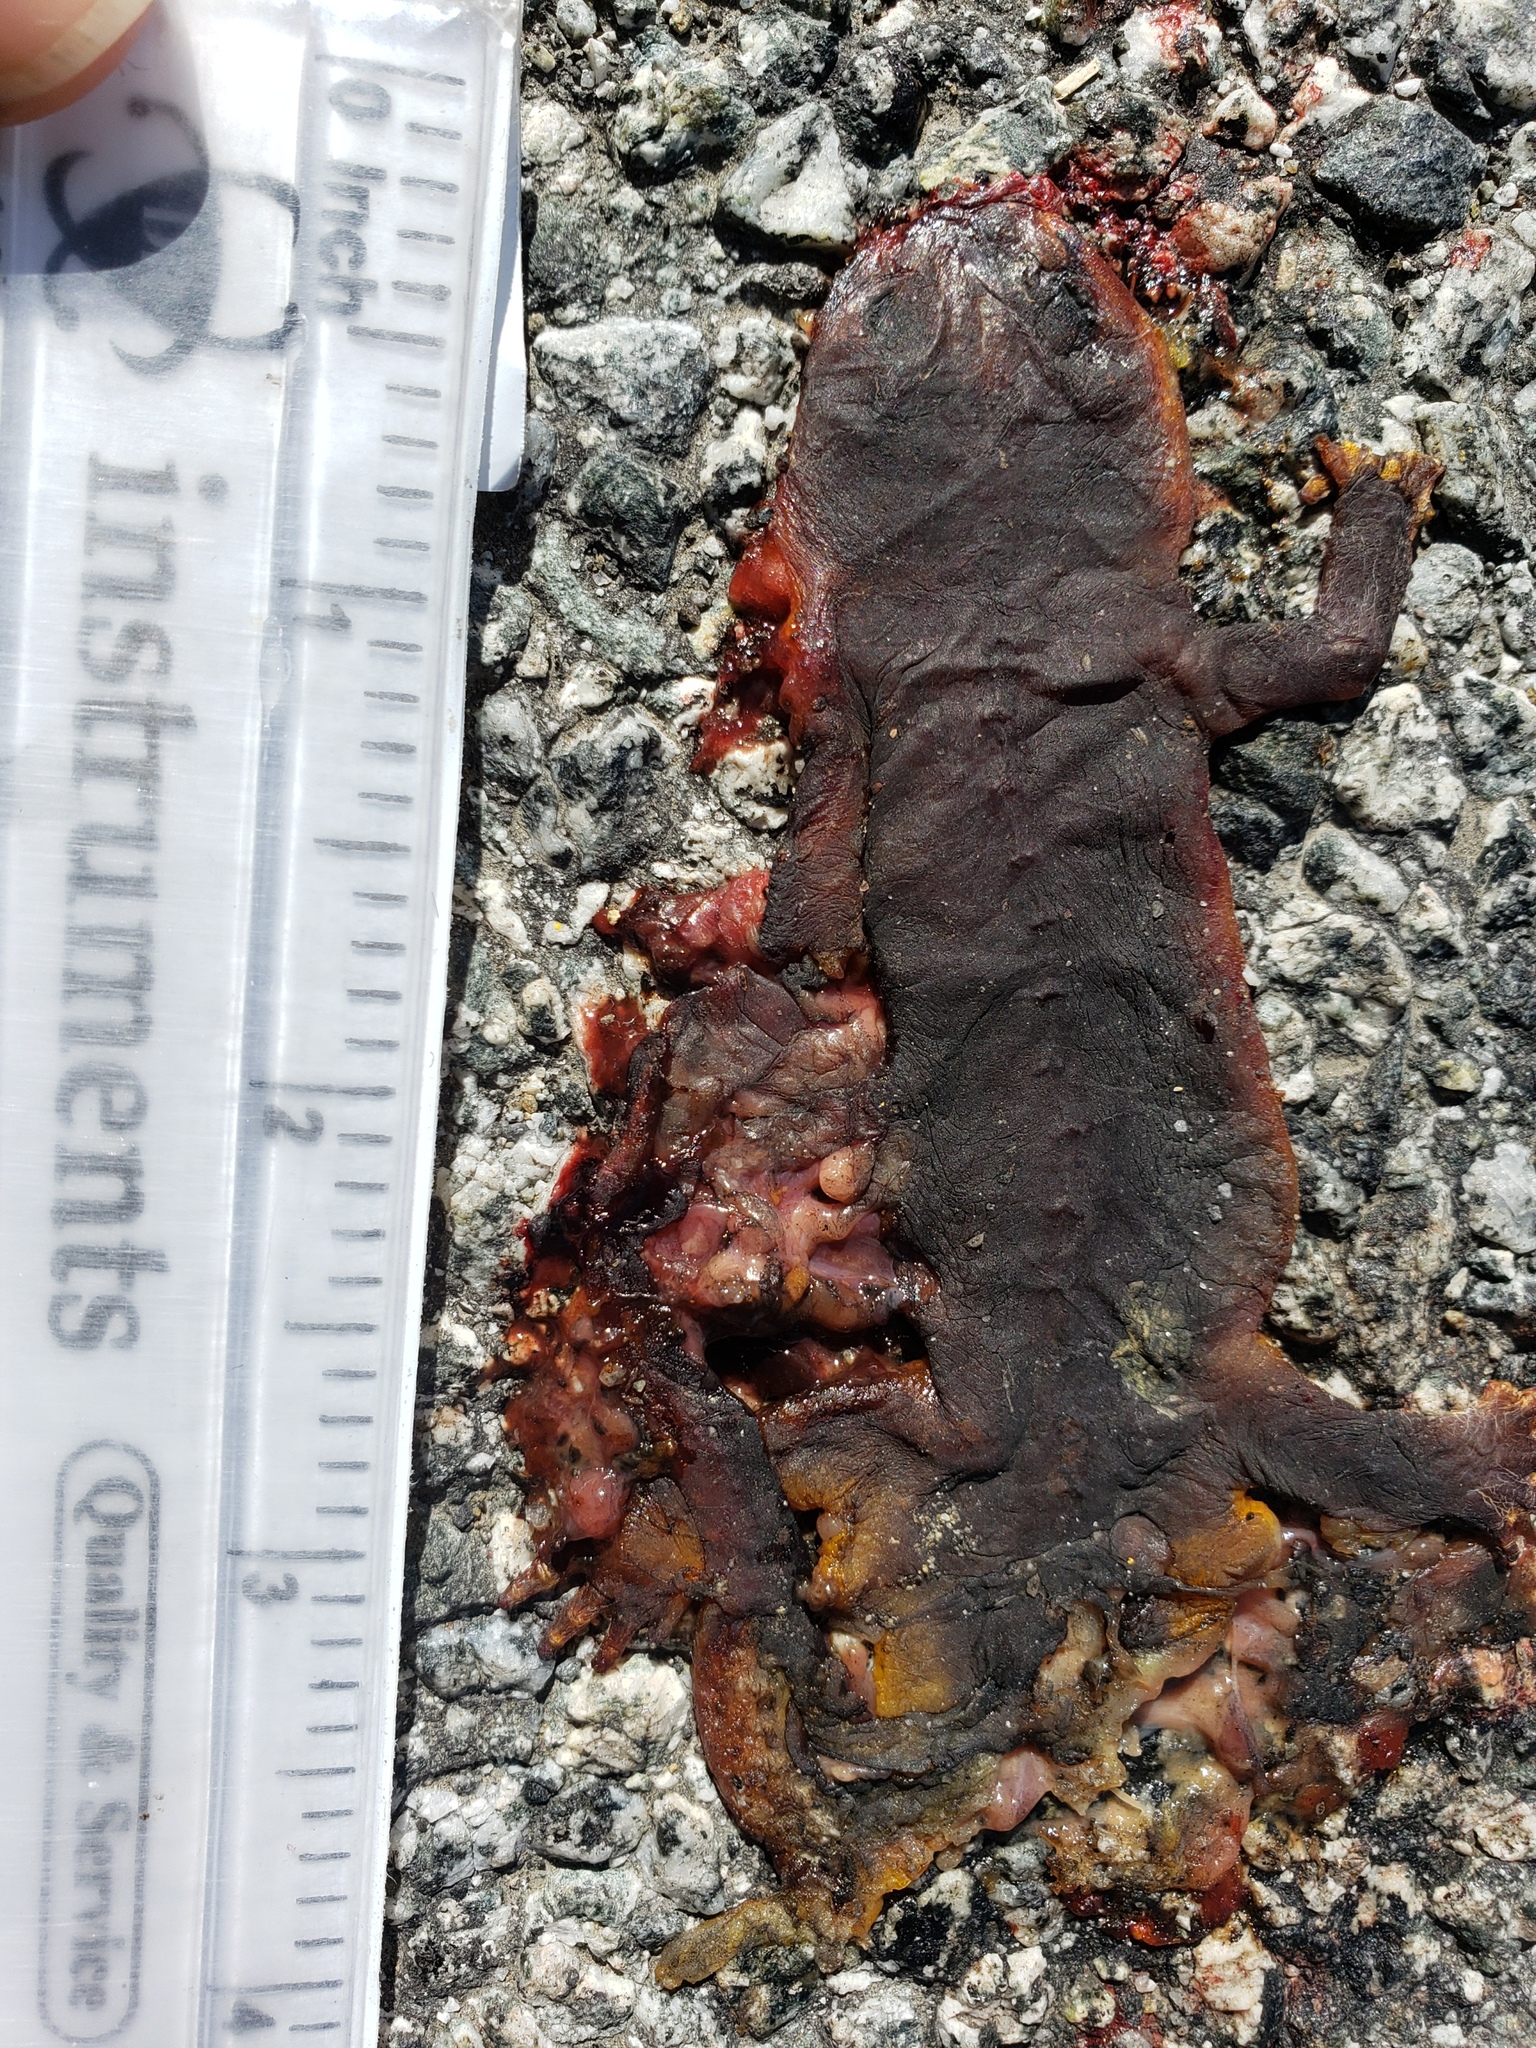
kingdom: Animalia
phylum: Chordata
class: Amphibia
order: Caudata
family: Salamandridae
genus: Taricha
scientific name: Taricha
